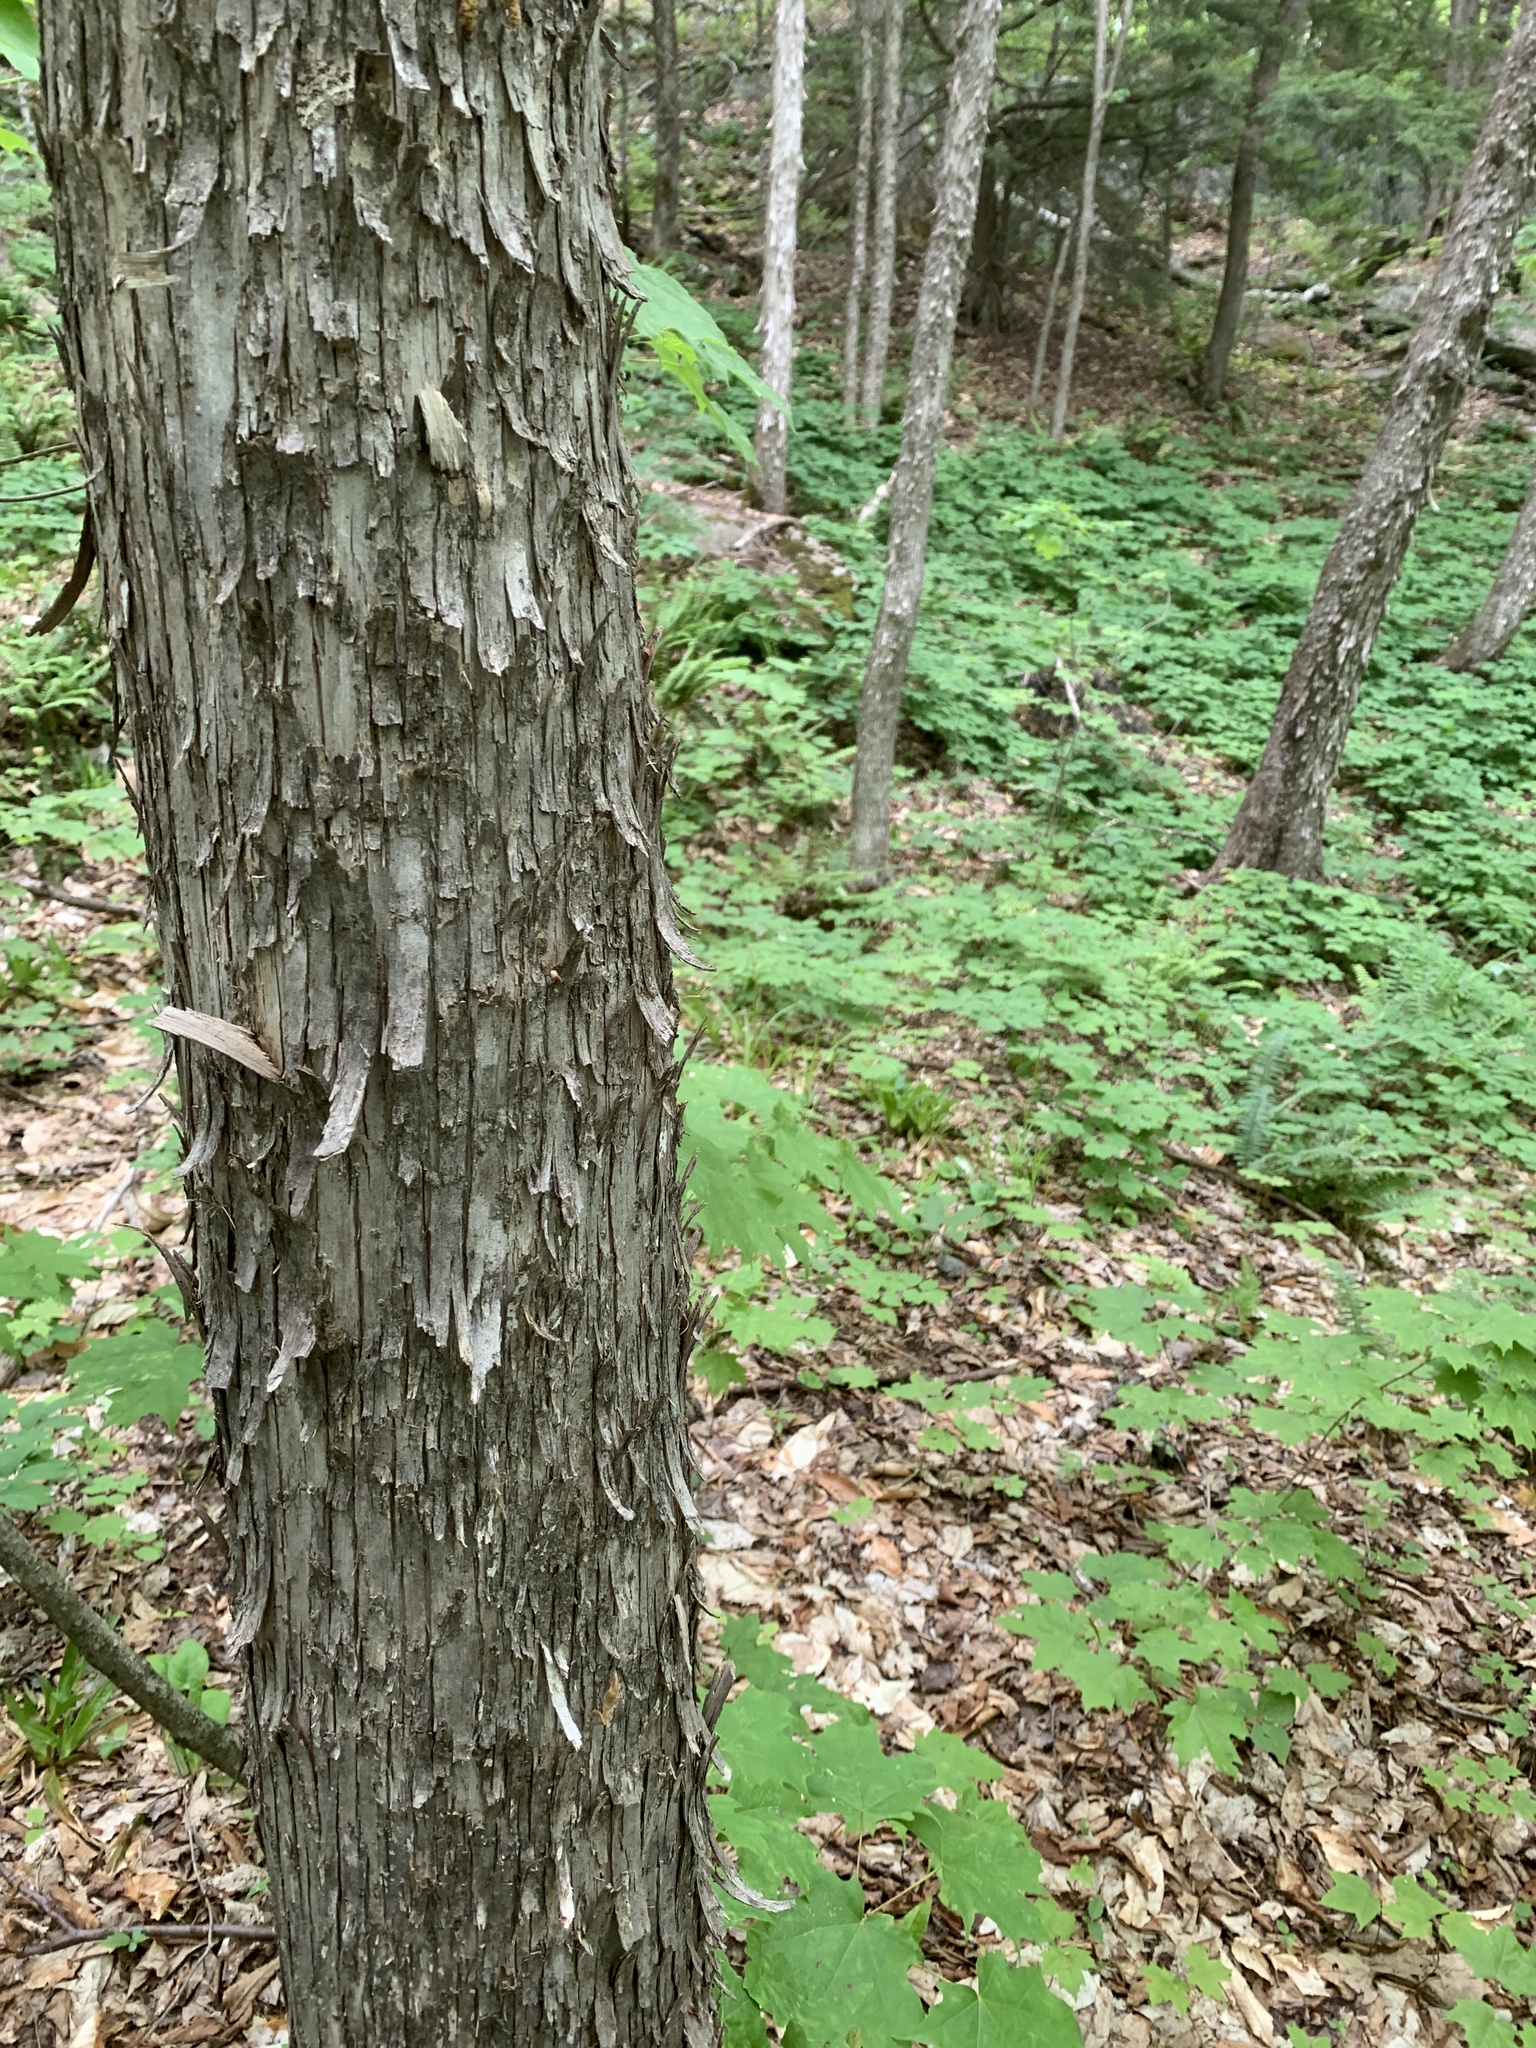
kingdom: Plantae
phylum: Tracheophyta
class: Magnoliopsida
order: Fagales
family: Betulaceae
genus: Ostrya
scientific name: Ostrya virginiana
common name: Ironwood
